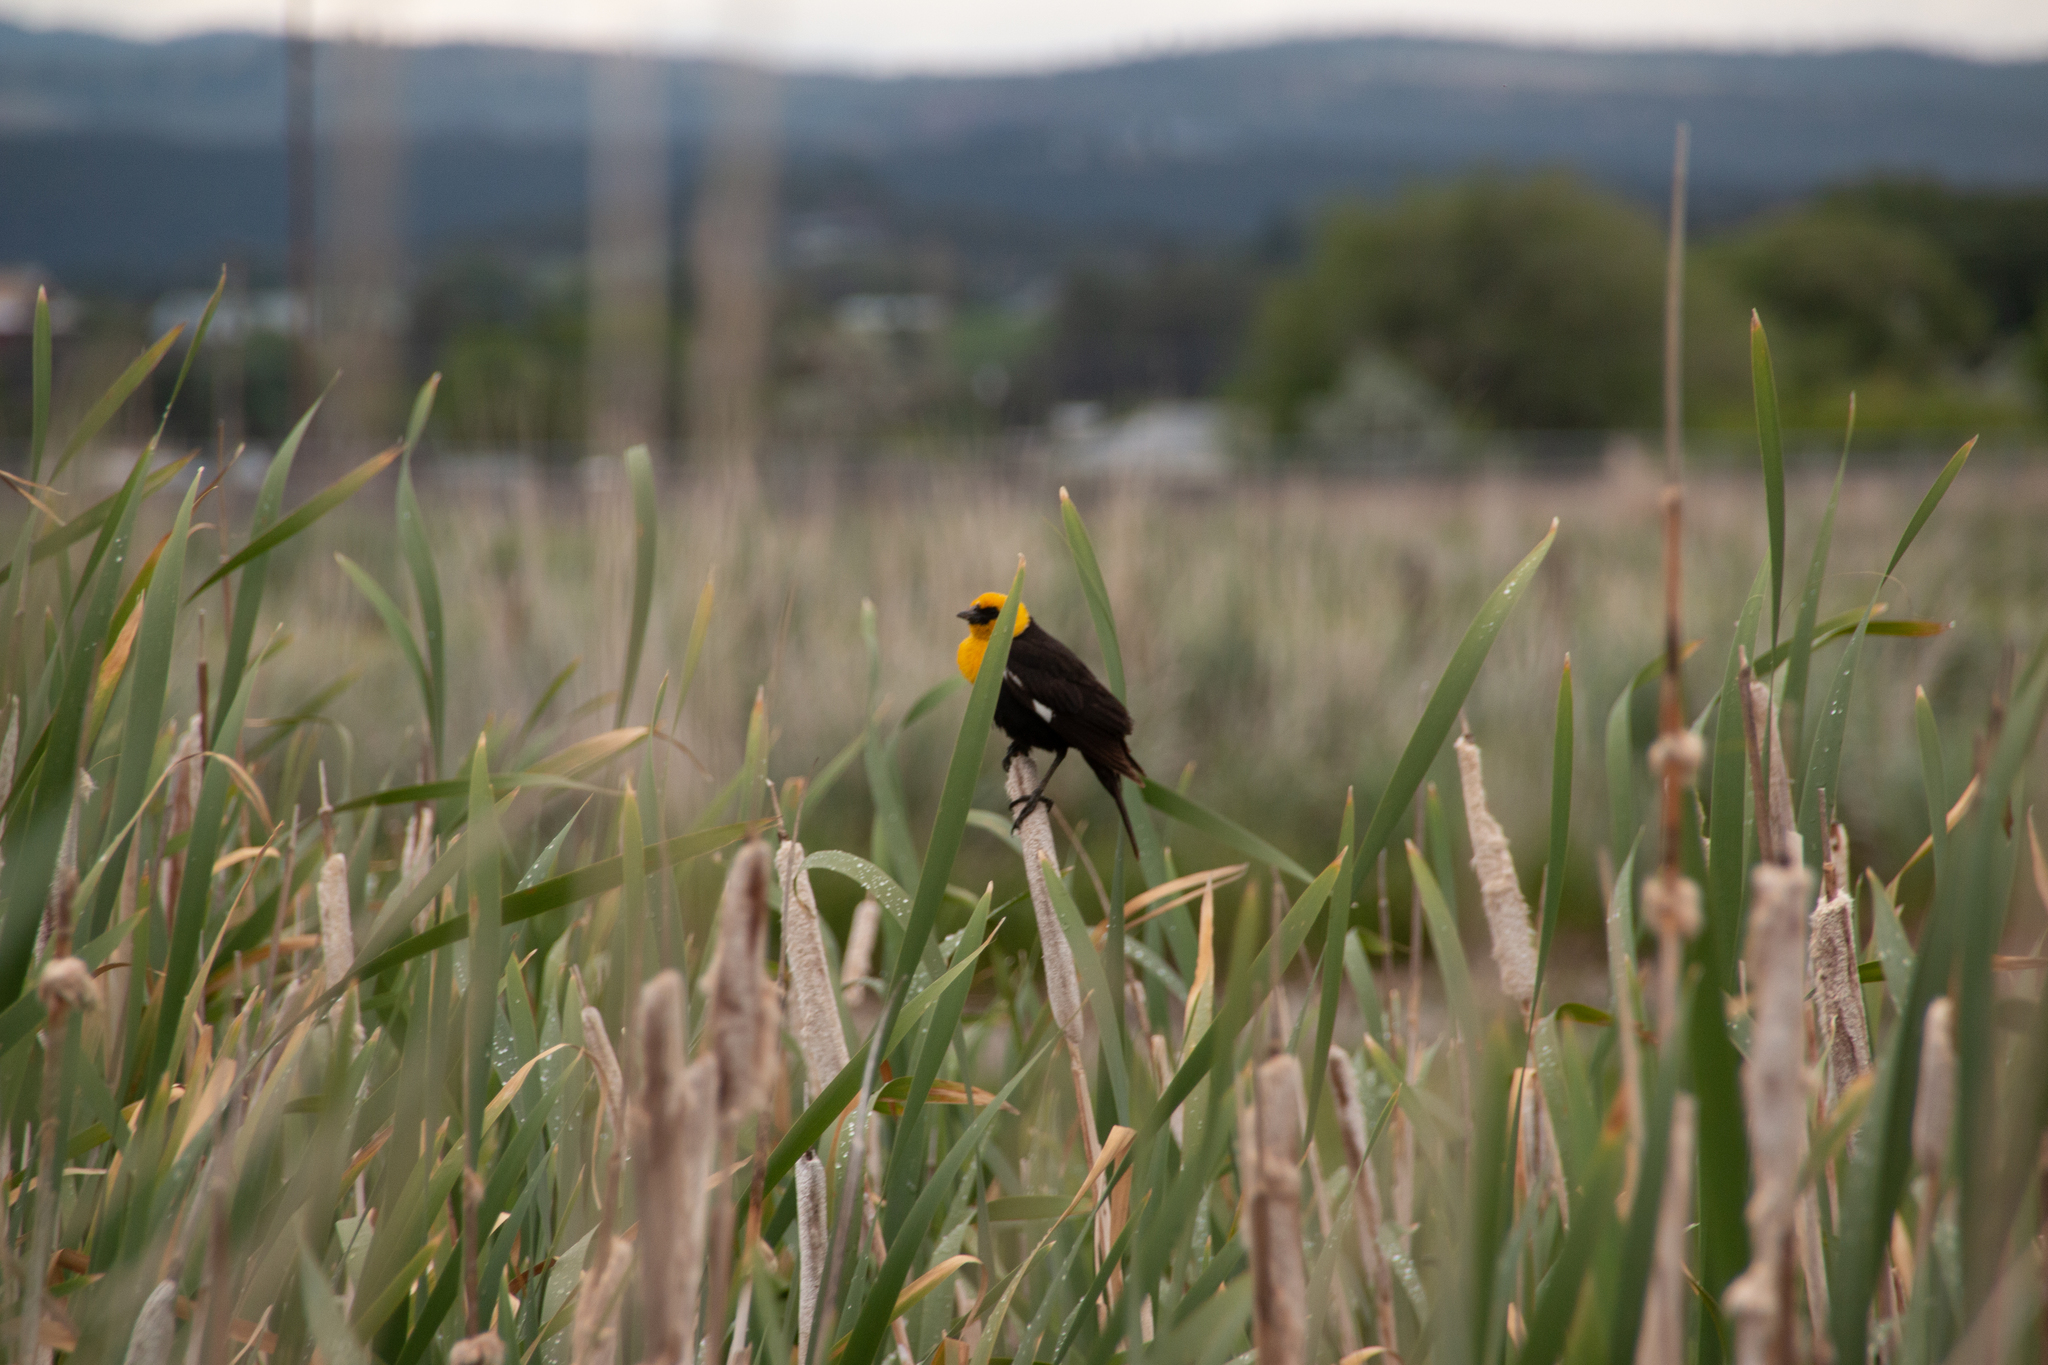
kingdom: Animalia
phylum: Chordata
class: Aves
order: Passeriformes
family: Icteridae
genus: Xanthocephalus
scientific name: Xanthocephalus xanthocephalus
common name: Yellow-headed blackbird
